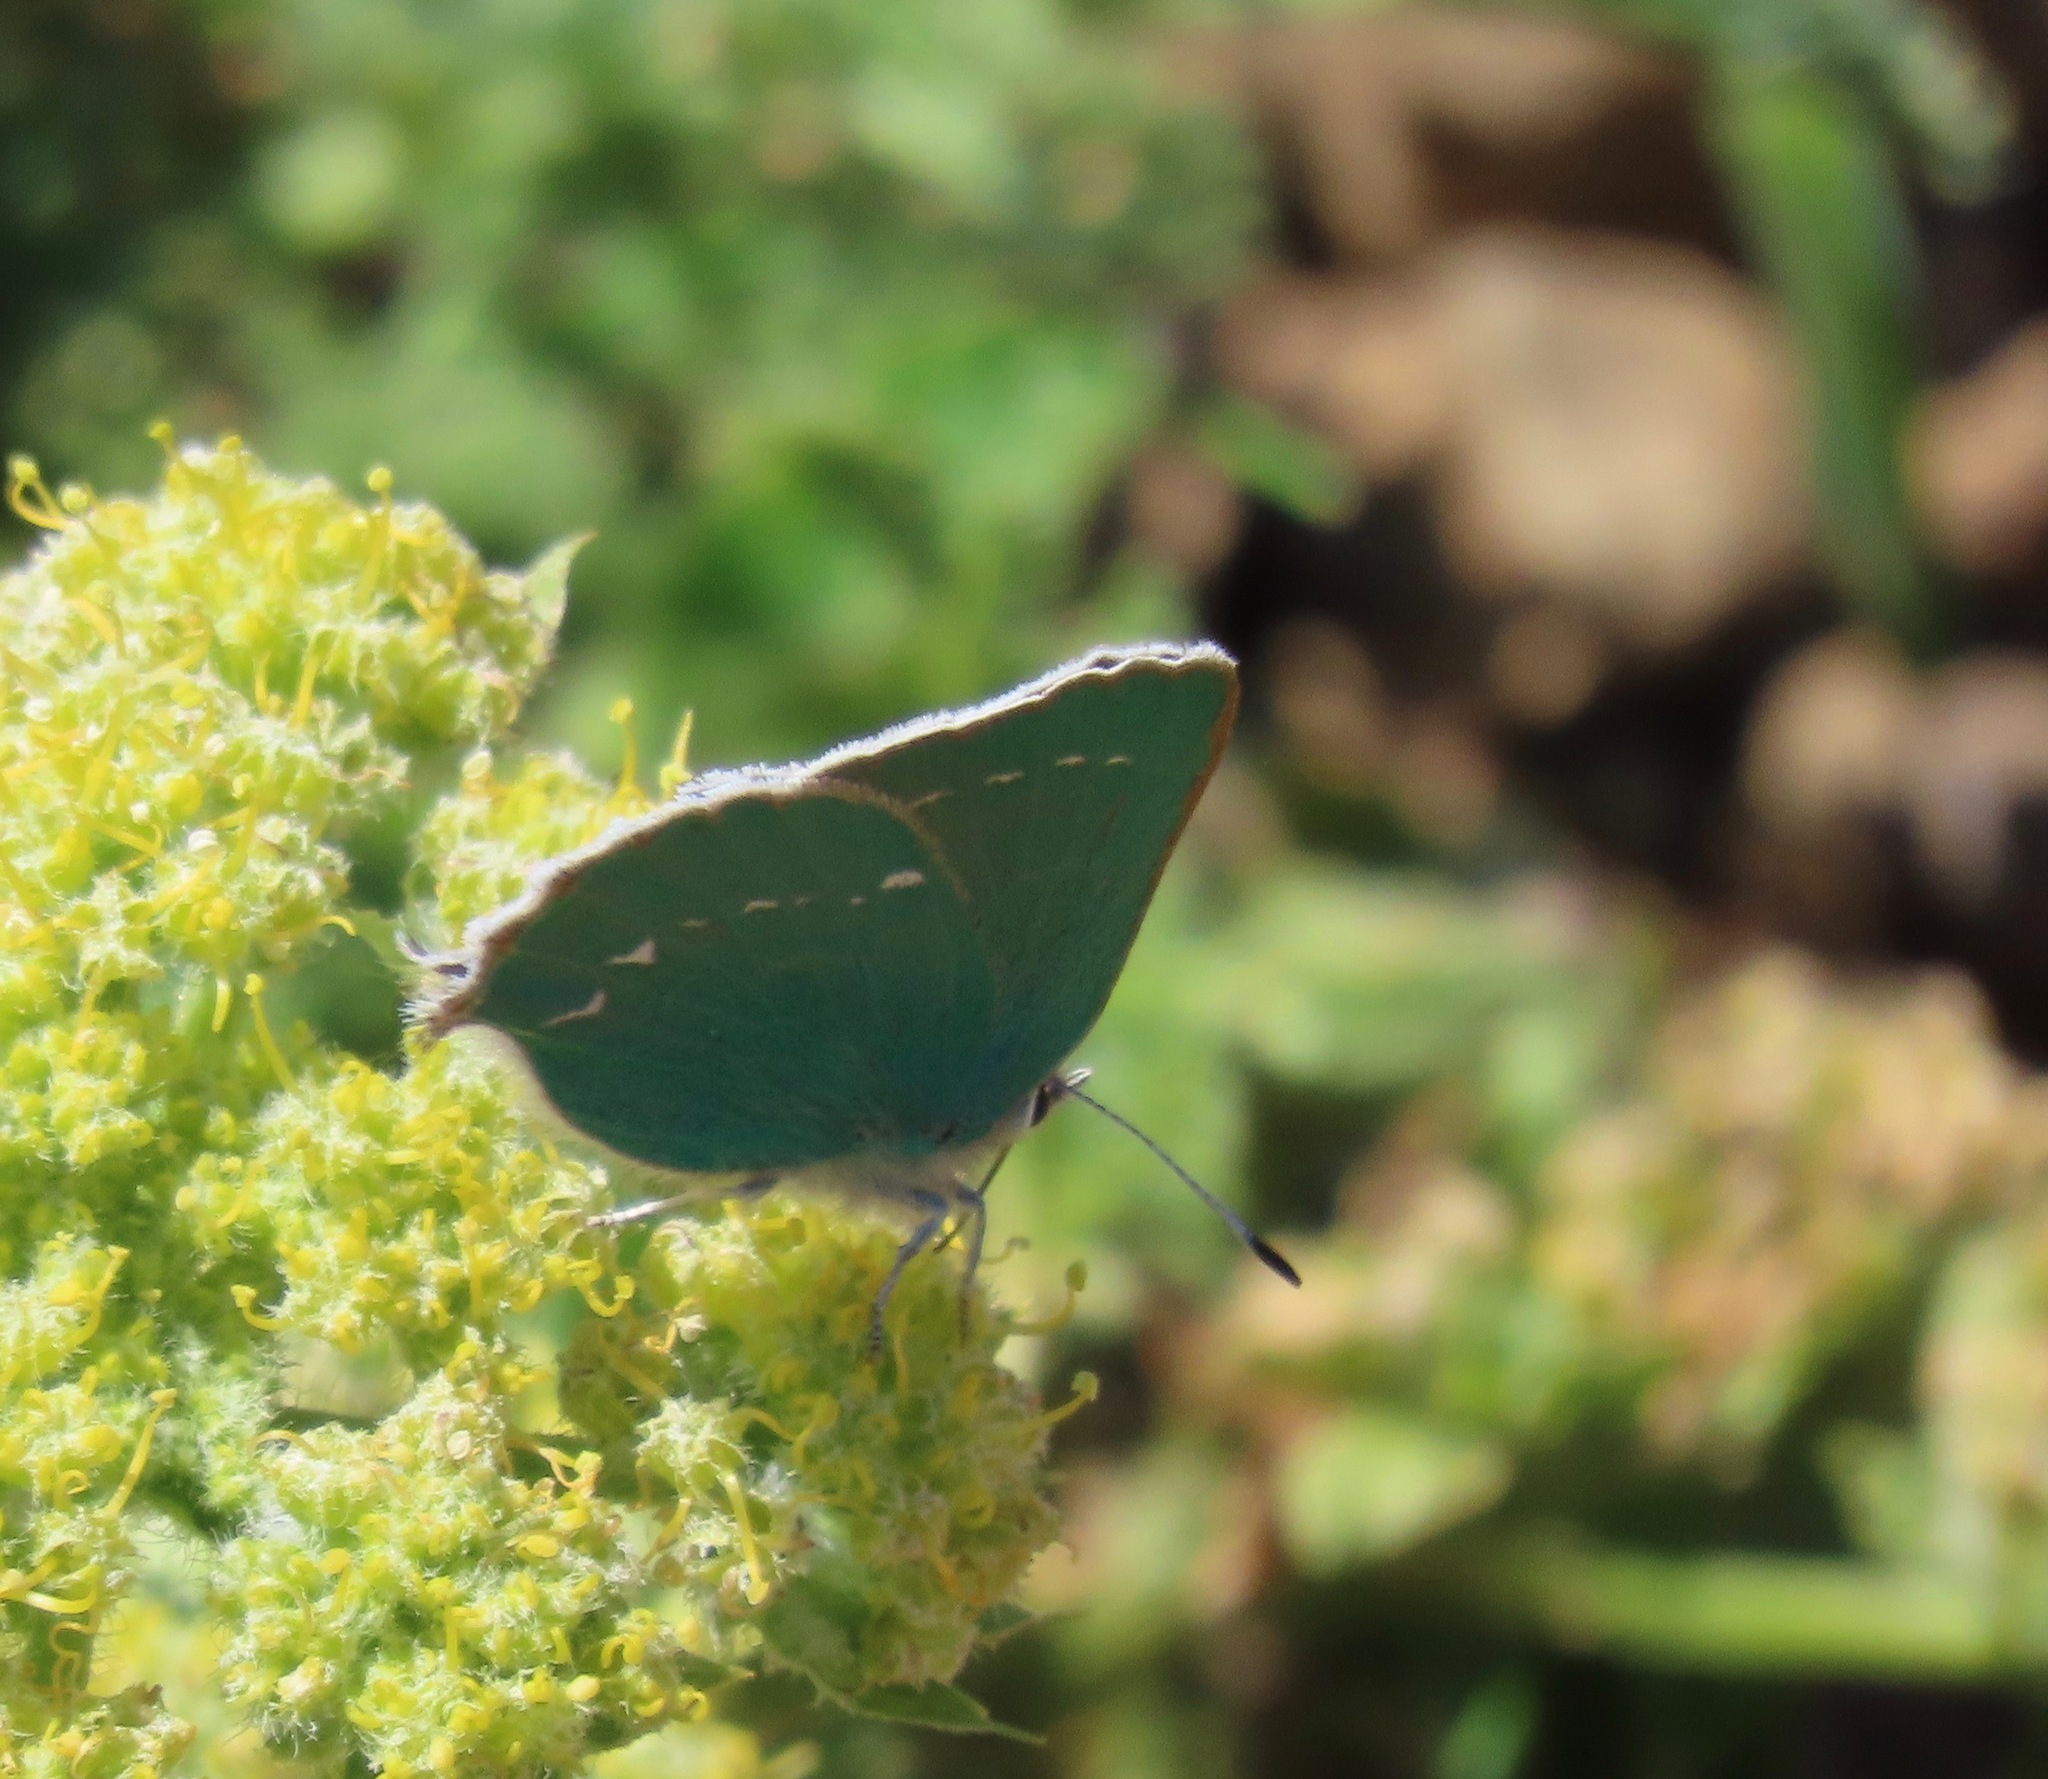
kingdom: Animalia
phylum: Arthropoda
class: Insecta
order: Lepidoptera
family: Lycaenidae
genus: Callophrys
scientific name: Callophrys viridis
